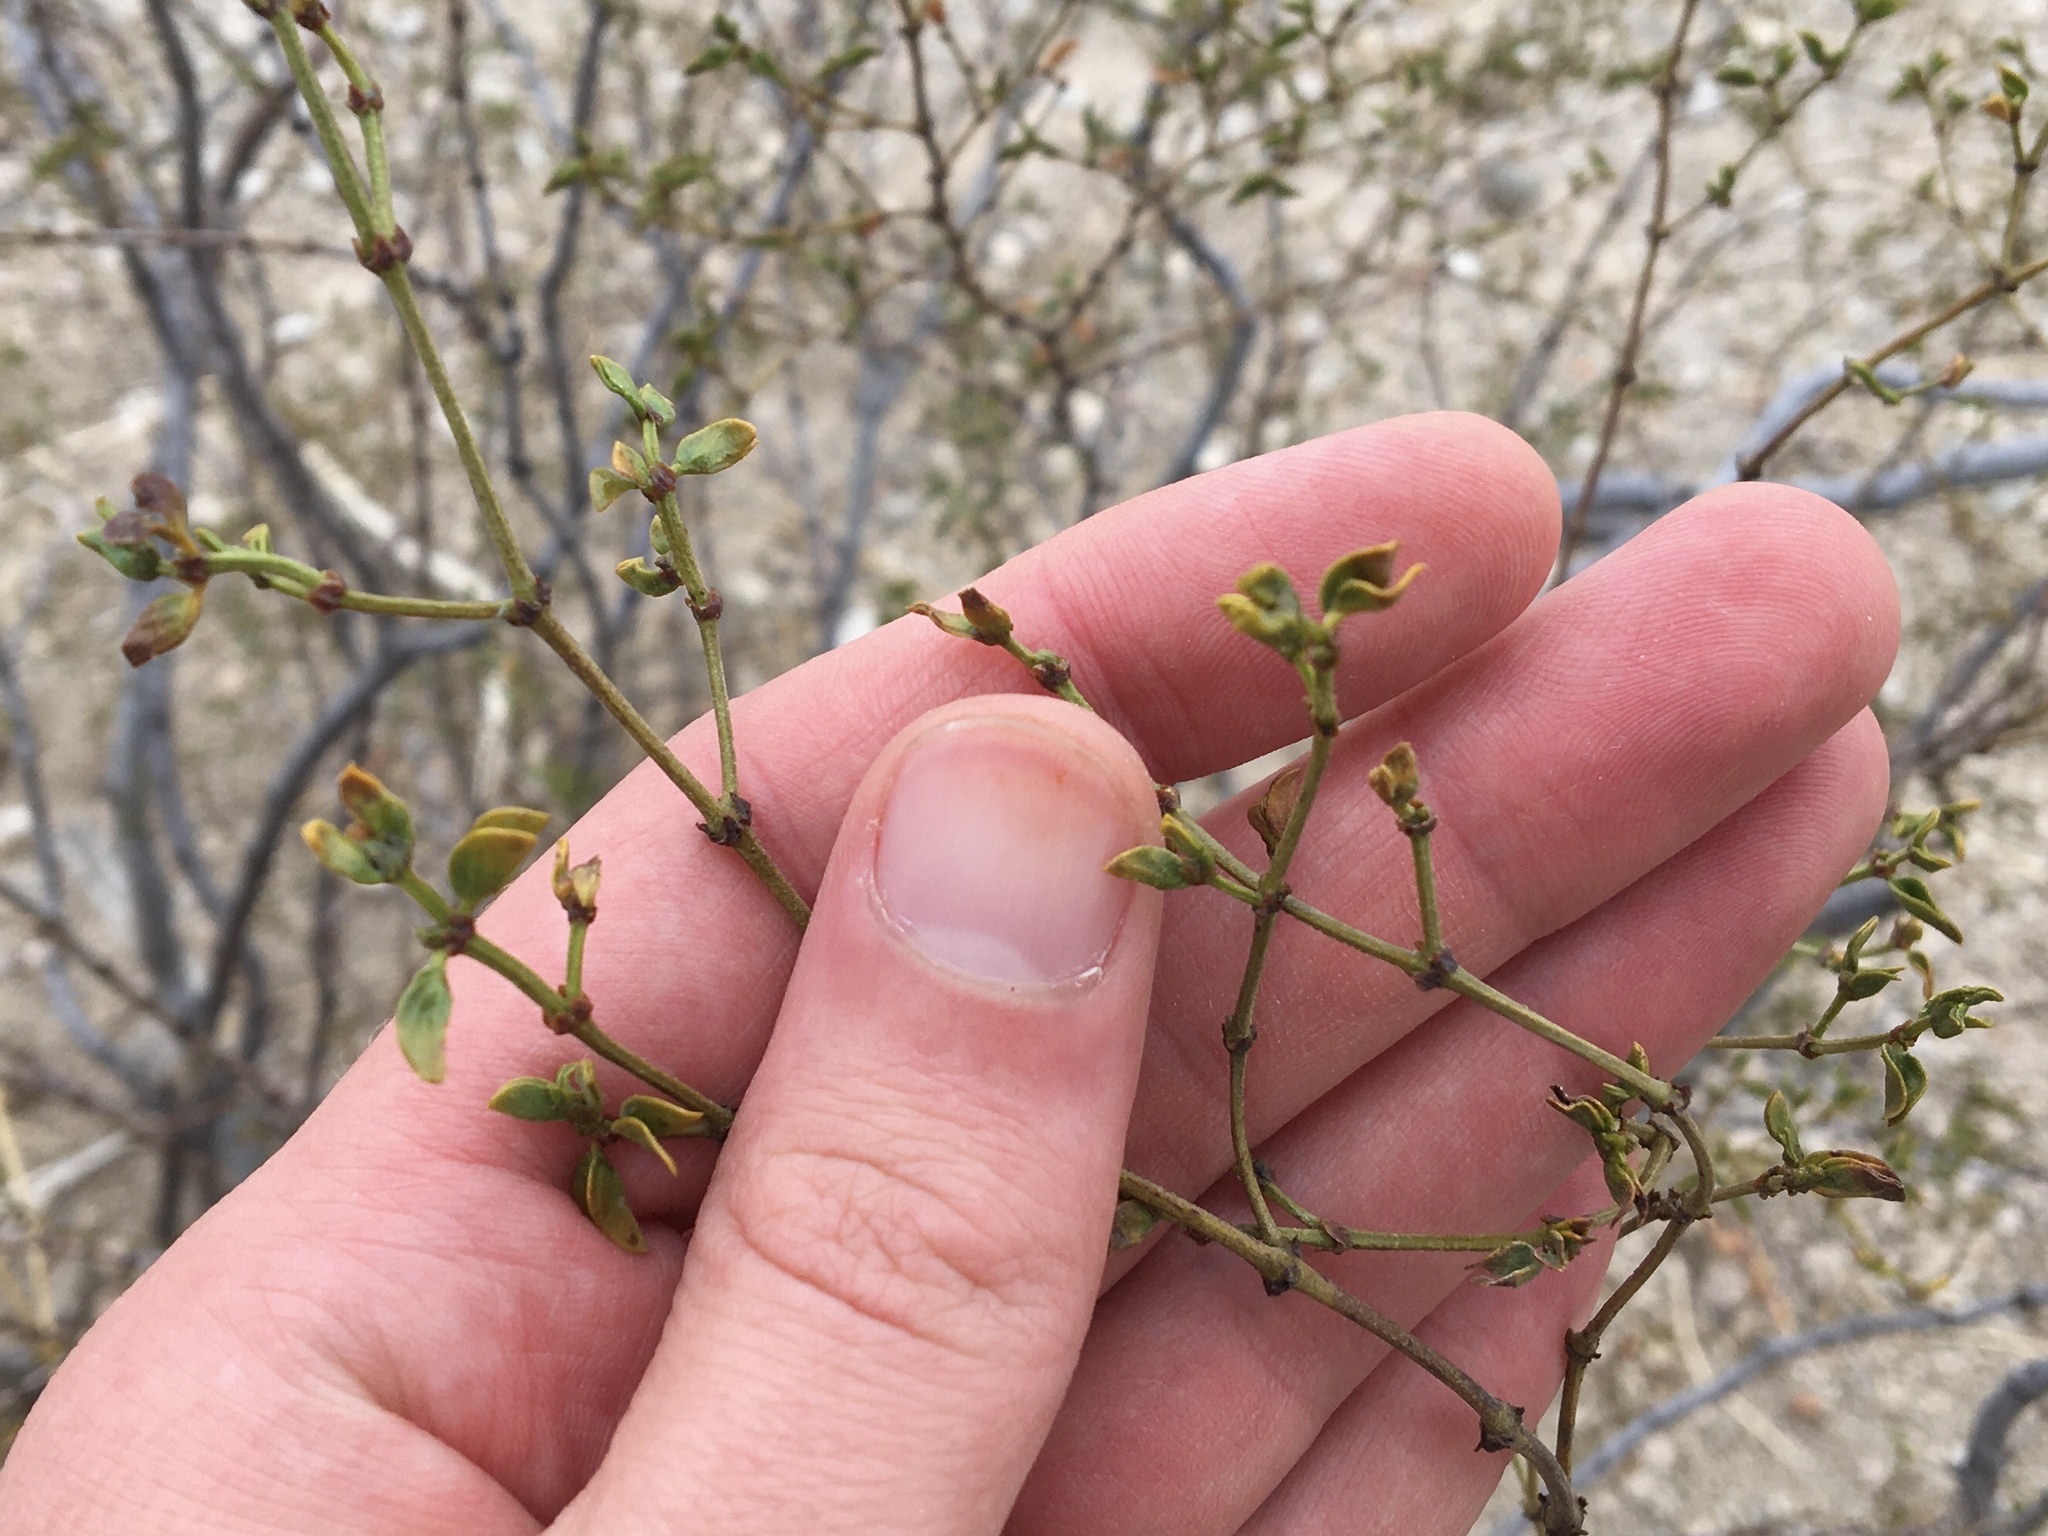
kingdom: Plantae
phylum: Tracheophyta
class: Magnoliopsida
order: Zygophyllales
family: Zygophyllaceae
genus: Larrea
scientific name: Larrea tridentata
